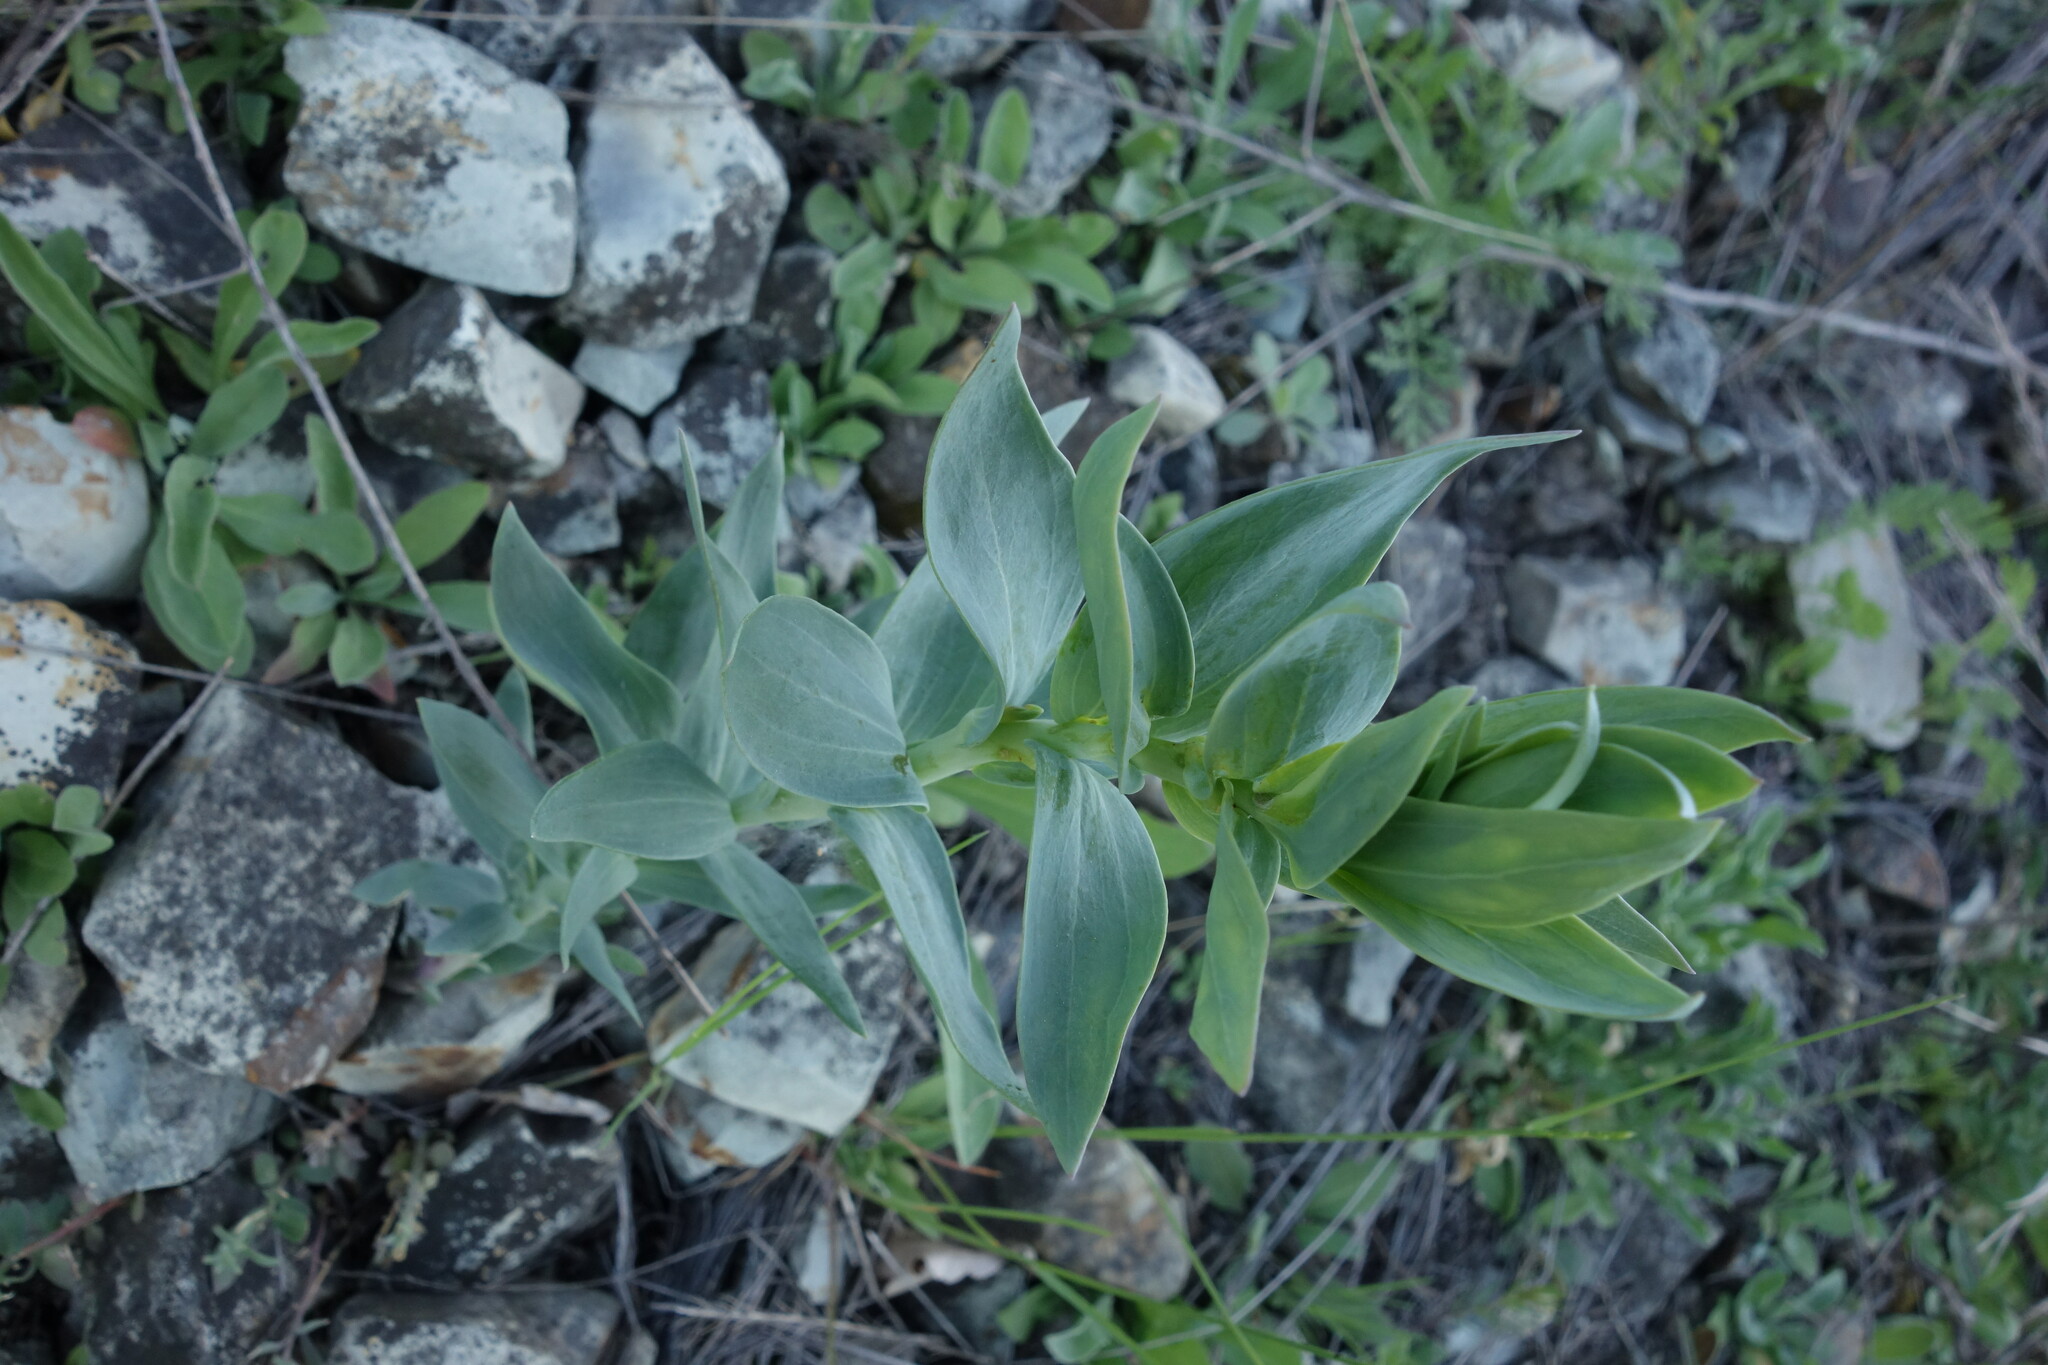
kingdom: Plantae
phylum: Tracheophyta
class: Magnoliopsida
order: Lamiales
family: Plantaginaceae
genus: Linaria
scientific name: Linaria genistifolia
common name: Broomleaf toadflax
